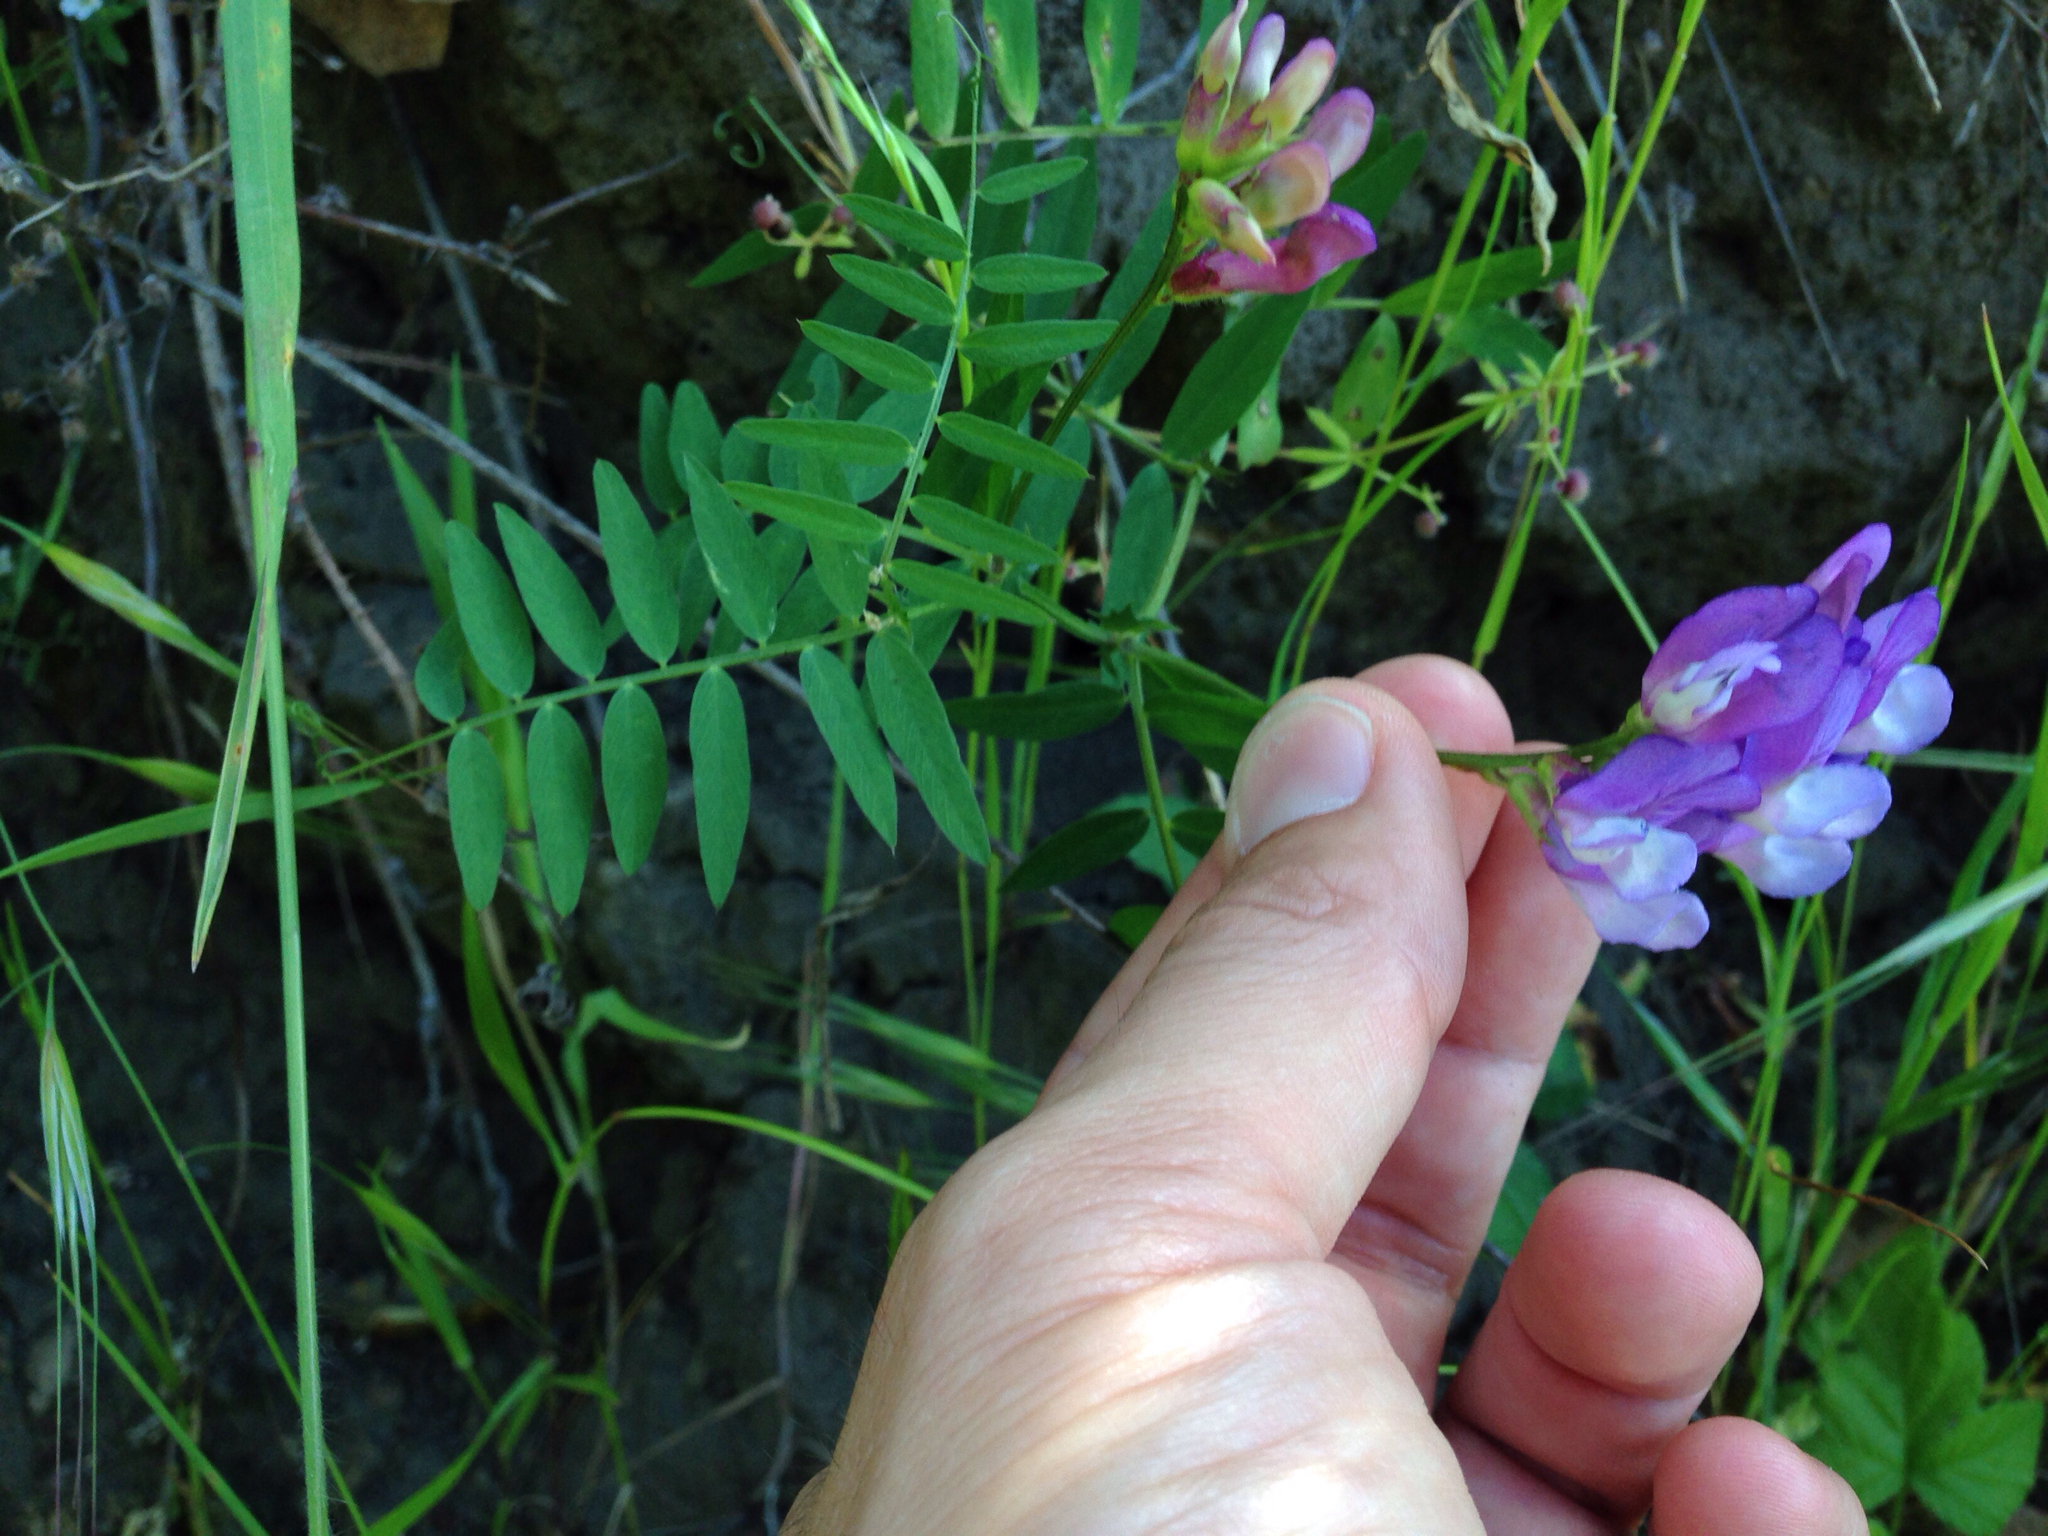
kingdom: Plantae
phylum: Tracheophyta
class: Magnoliopsida
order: Fabales
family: Fabaceae
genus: Vicia
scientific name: Vicia americana
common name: American vetch
